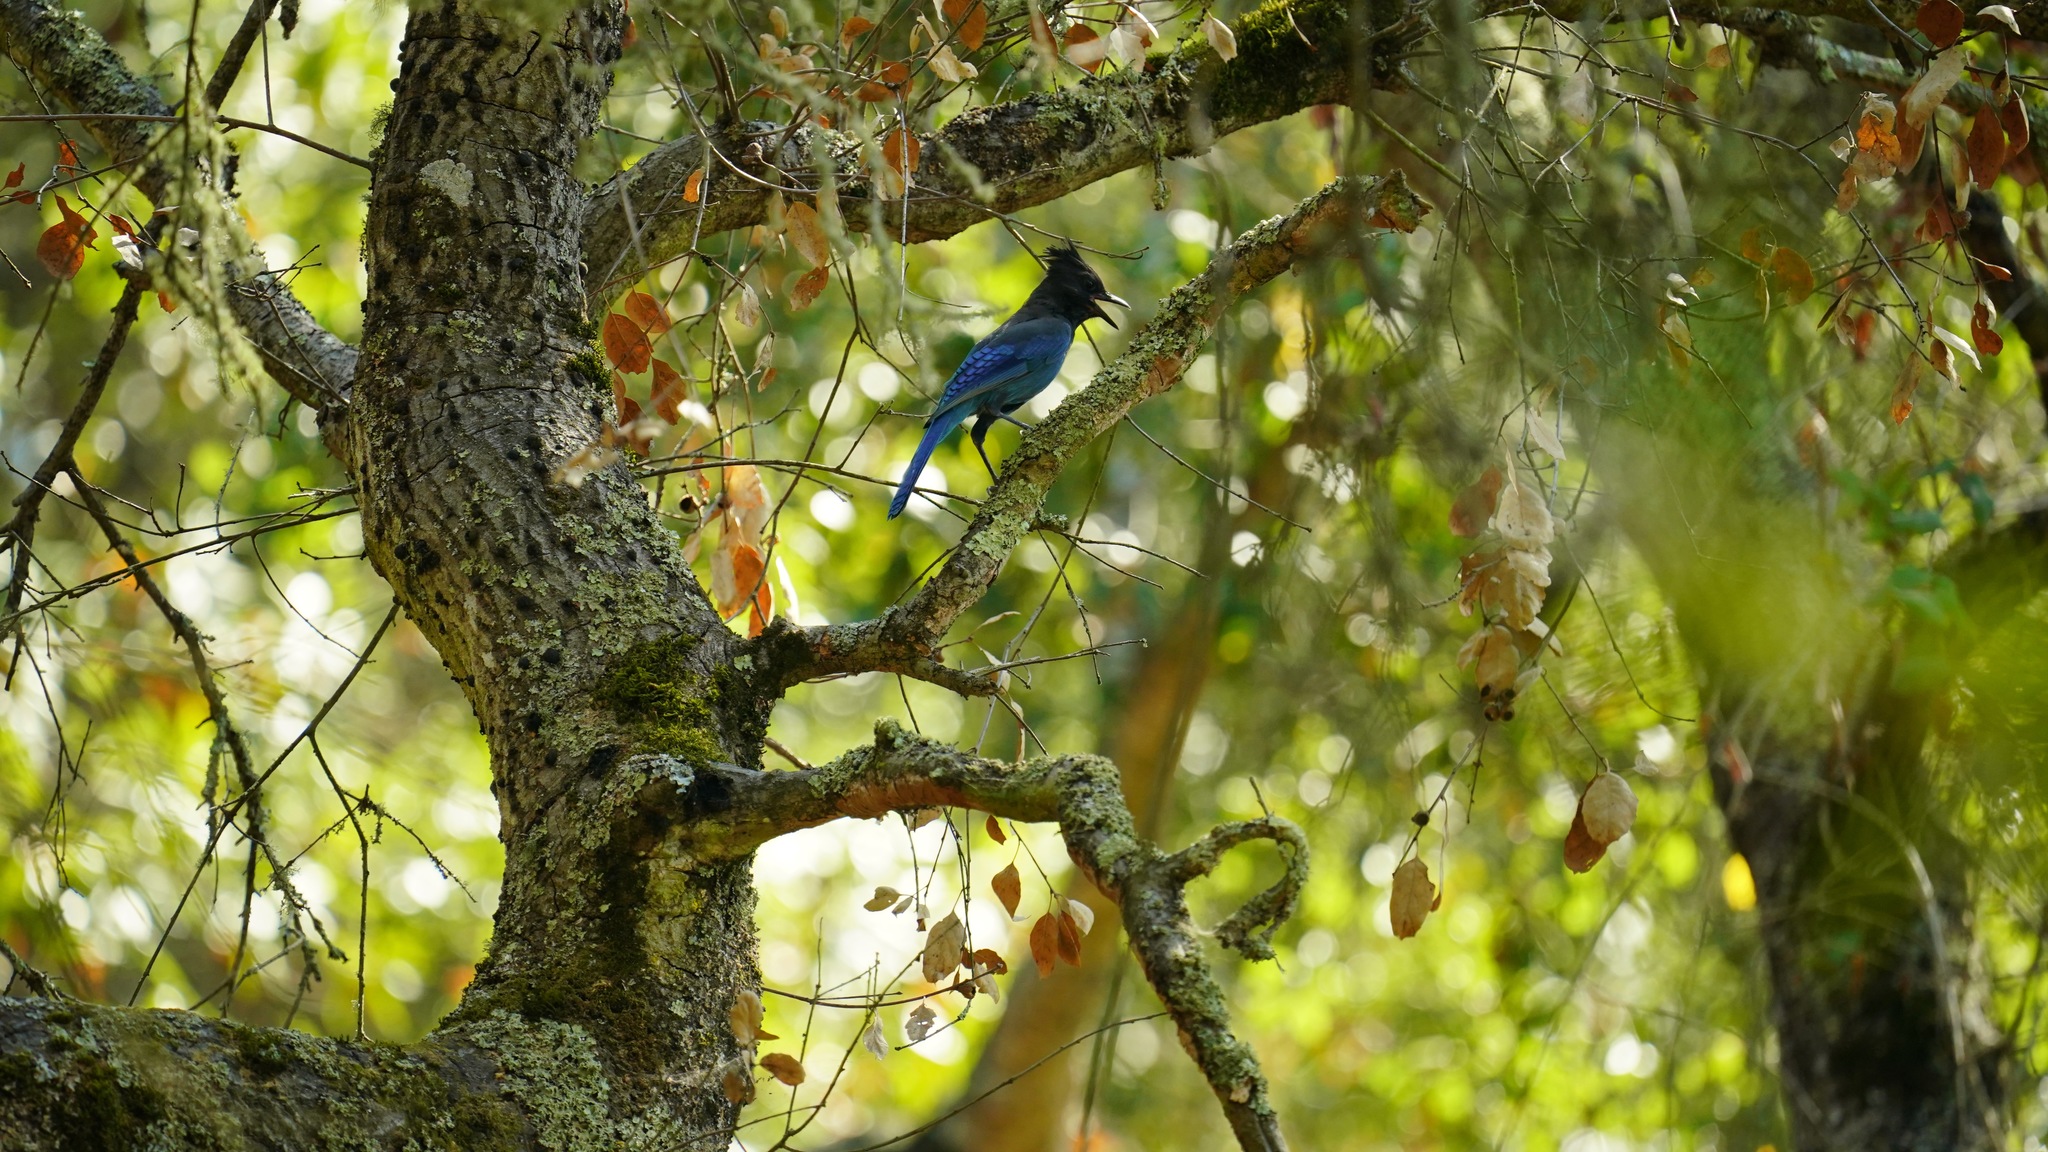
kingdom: Animalia
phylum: Chordata
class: Aves
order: Passeriformes
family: Corvidae
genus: Cyanocitta
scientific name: Cyanocitta stelleri
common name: Steller's jay
